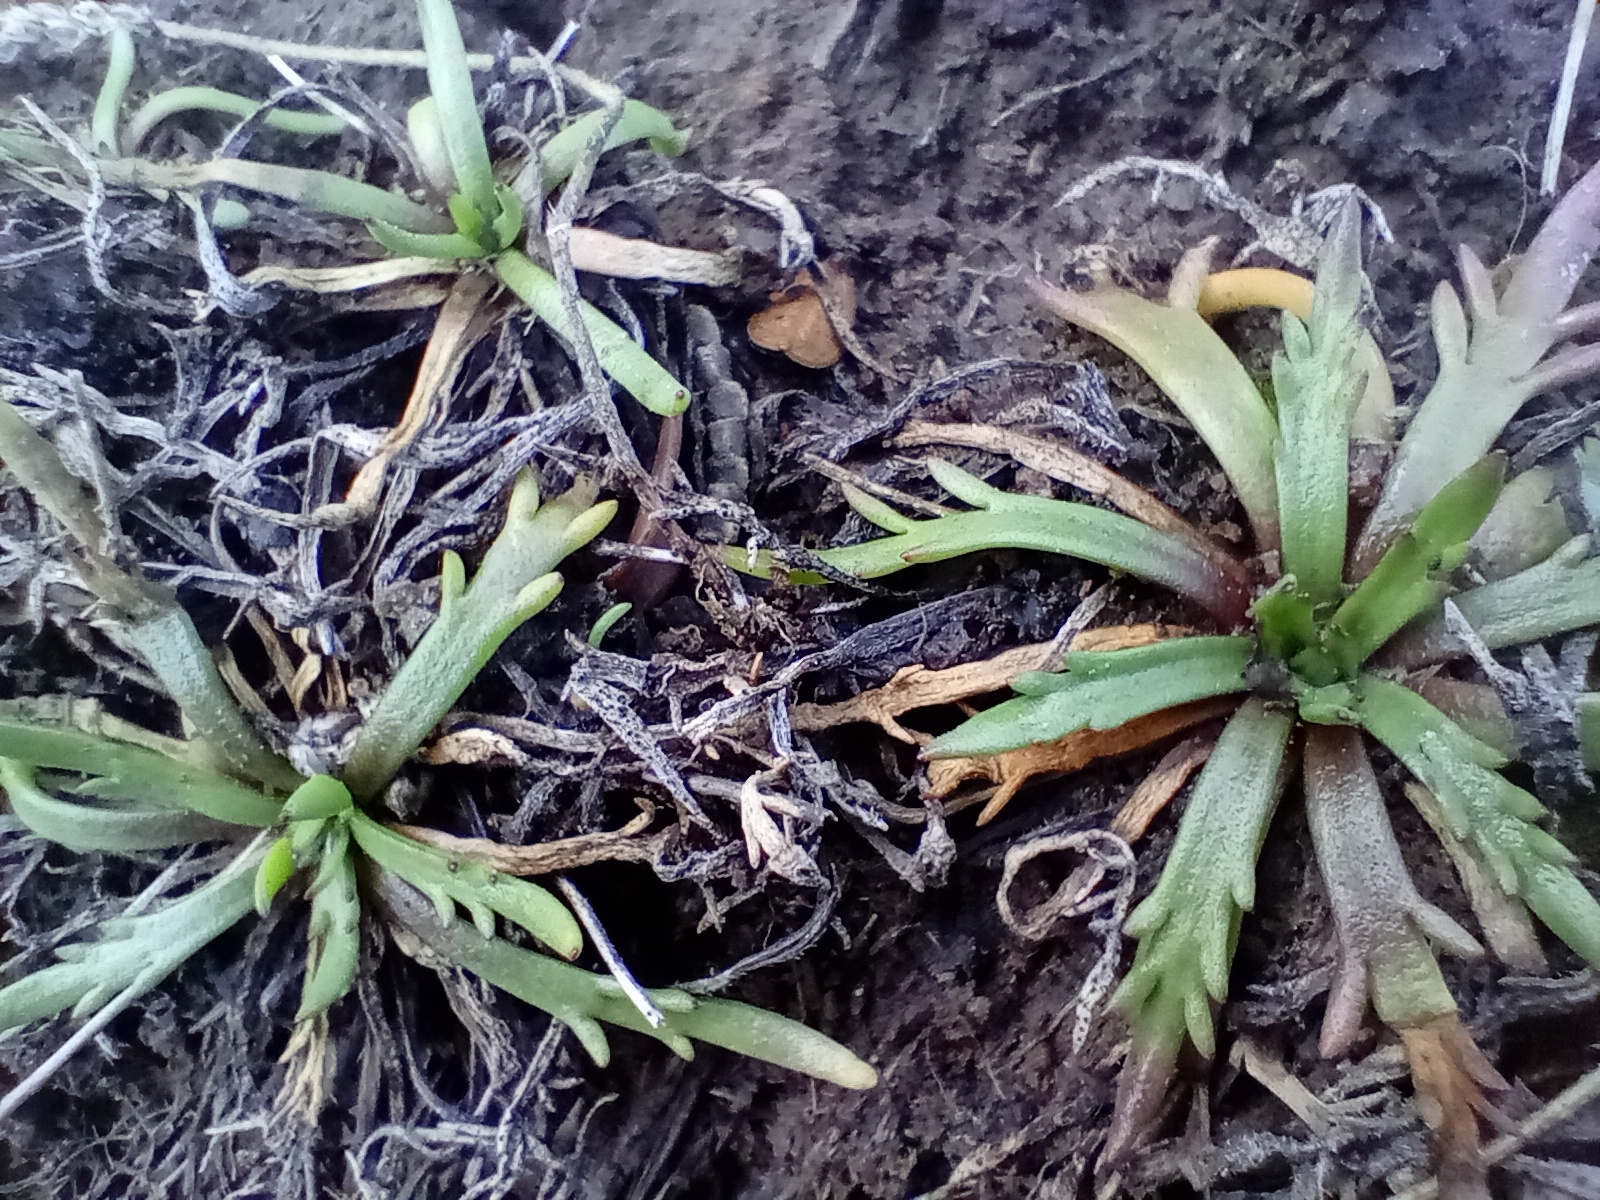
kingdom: Plantae
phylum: Tracheophyta
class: Magnoliopsida
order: Lamiales
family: Plantaginaceae
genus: Plantago
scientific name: Plantago coronopus
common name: Buck's-horn plantain
